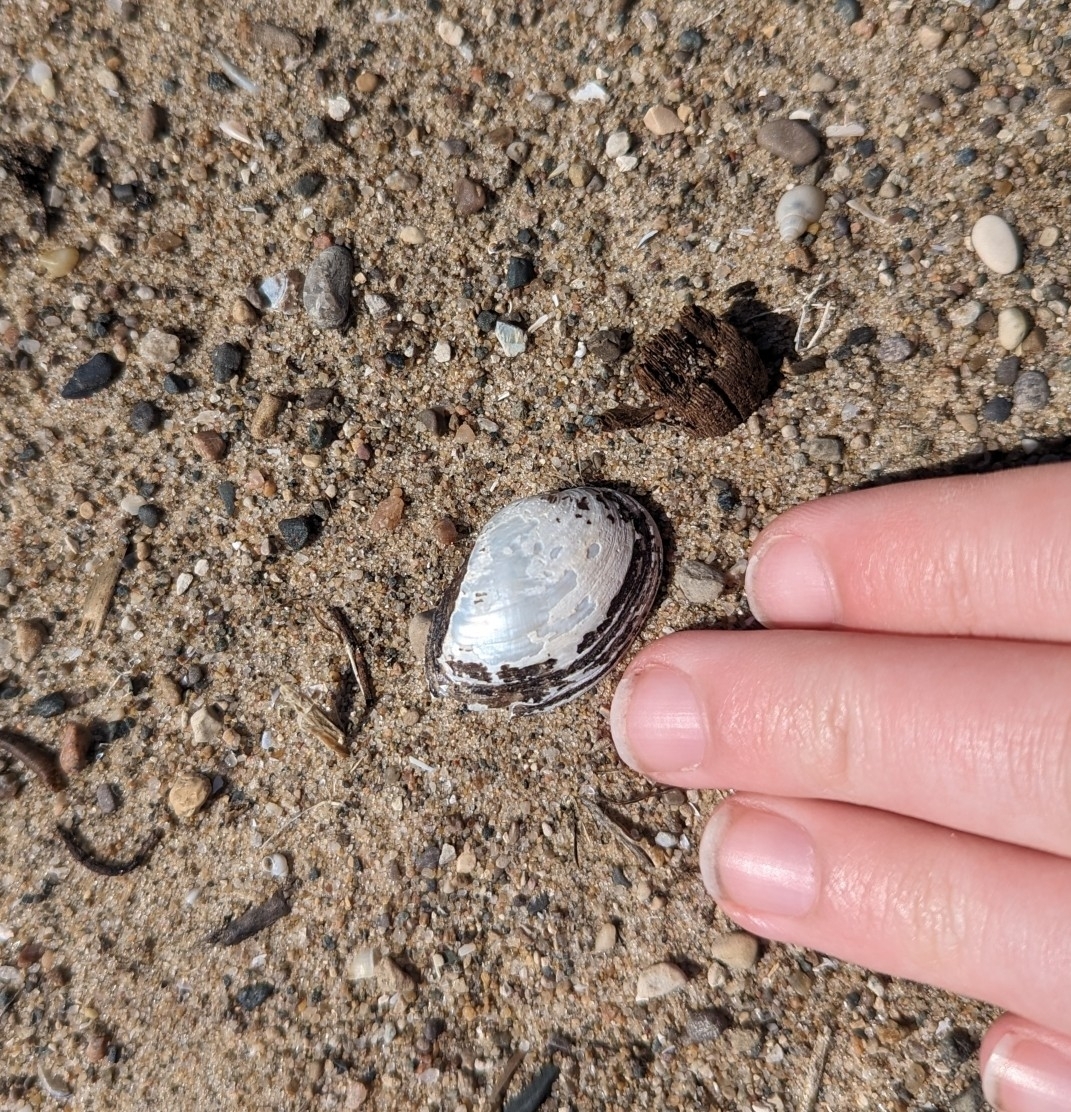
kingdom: Animalia
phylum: Mollusca
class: Bivalvia
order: Unionida
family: Unionidae
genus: Truncilla
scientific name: Truncilla donaciformis
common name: Fawnsfoot
